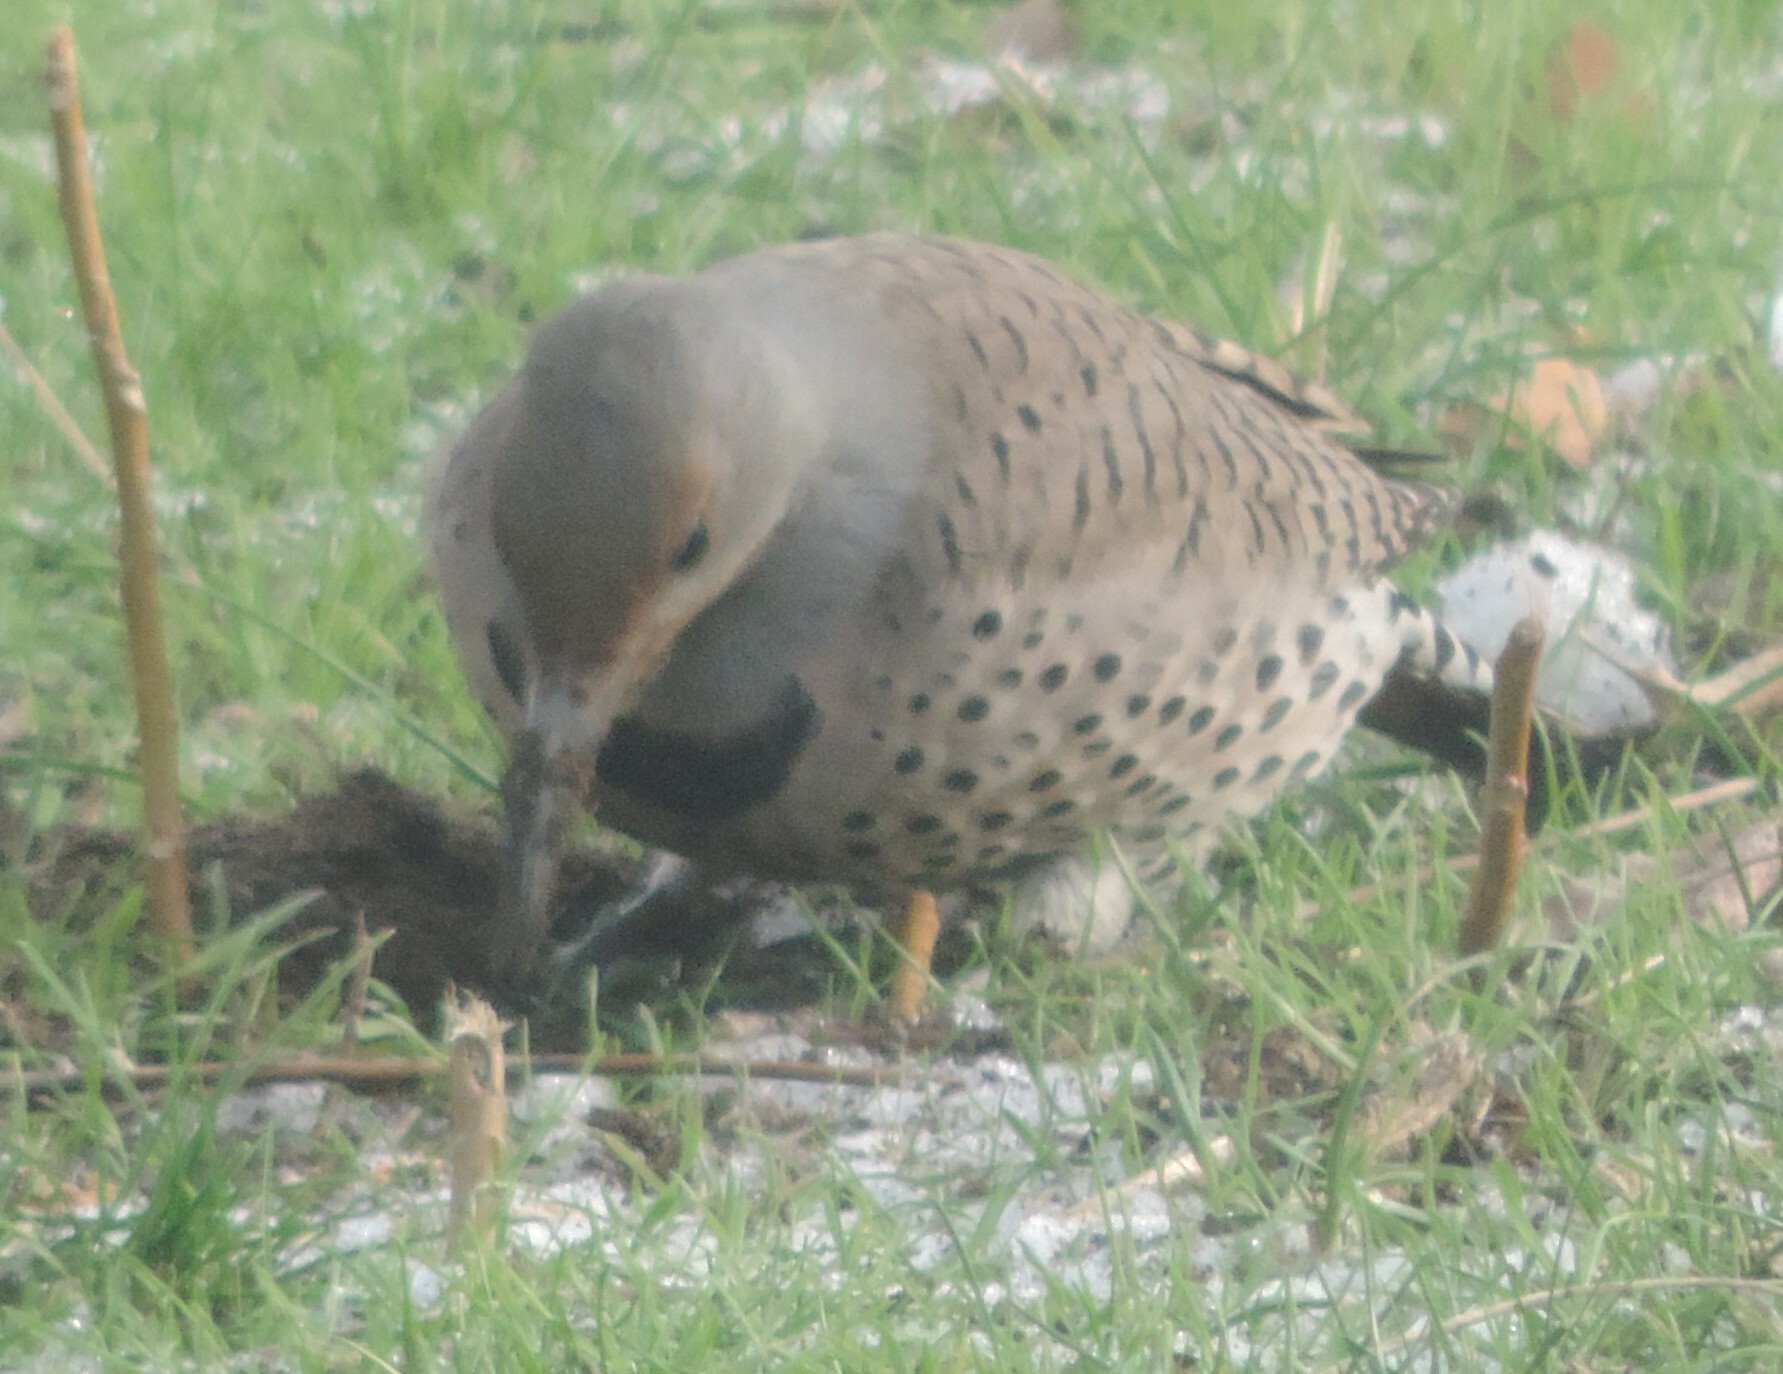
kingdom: Animalia
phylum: Chordata
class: Aves
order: Piciformes
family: Picidae
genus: Colaptes
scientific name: Colaptes auratus
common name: Northern flicker
